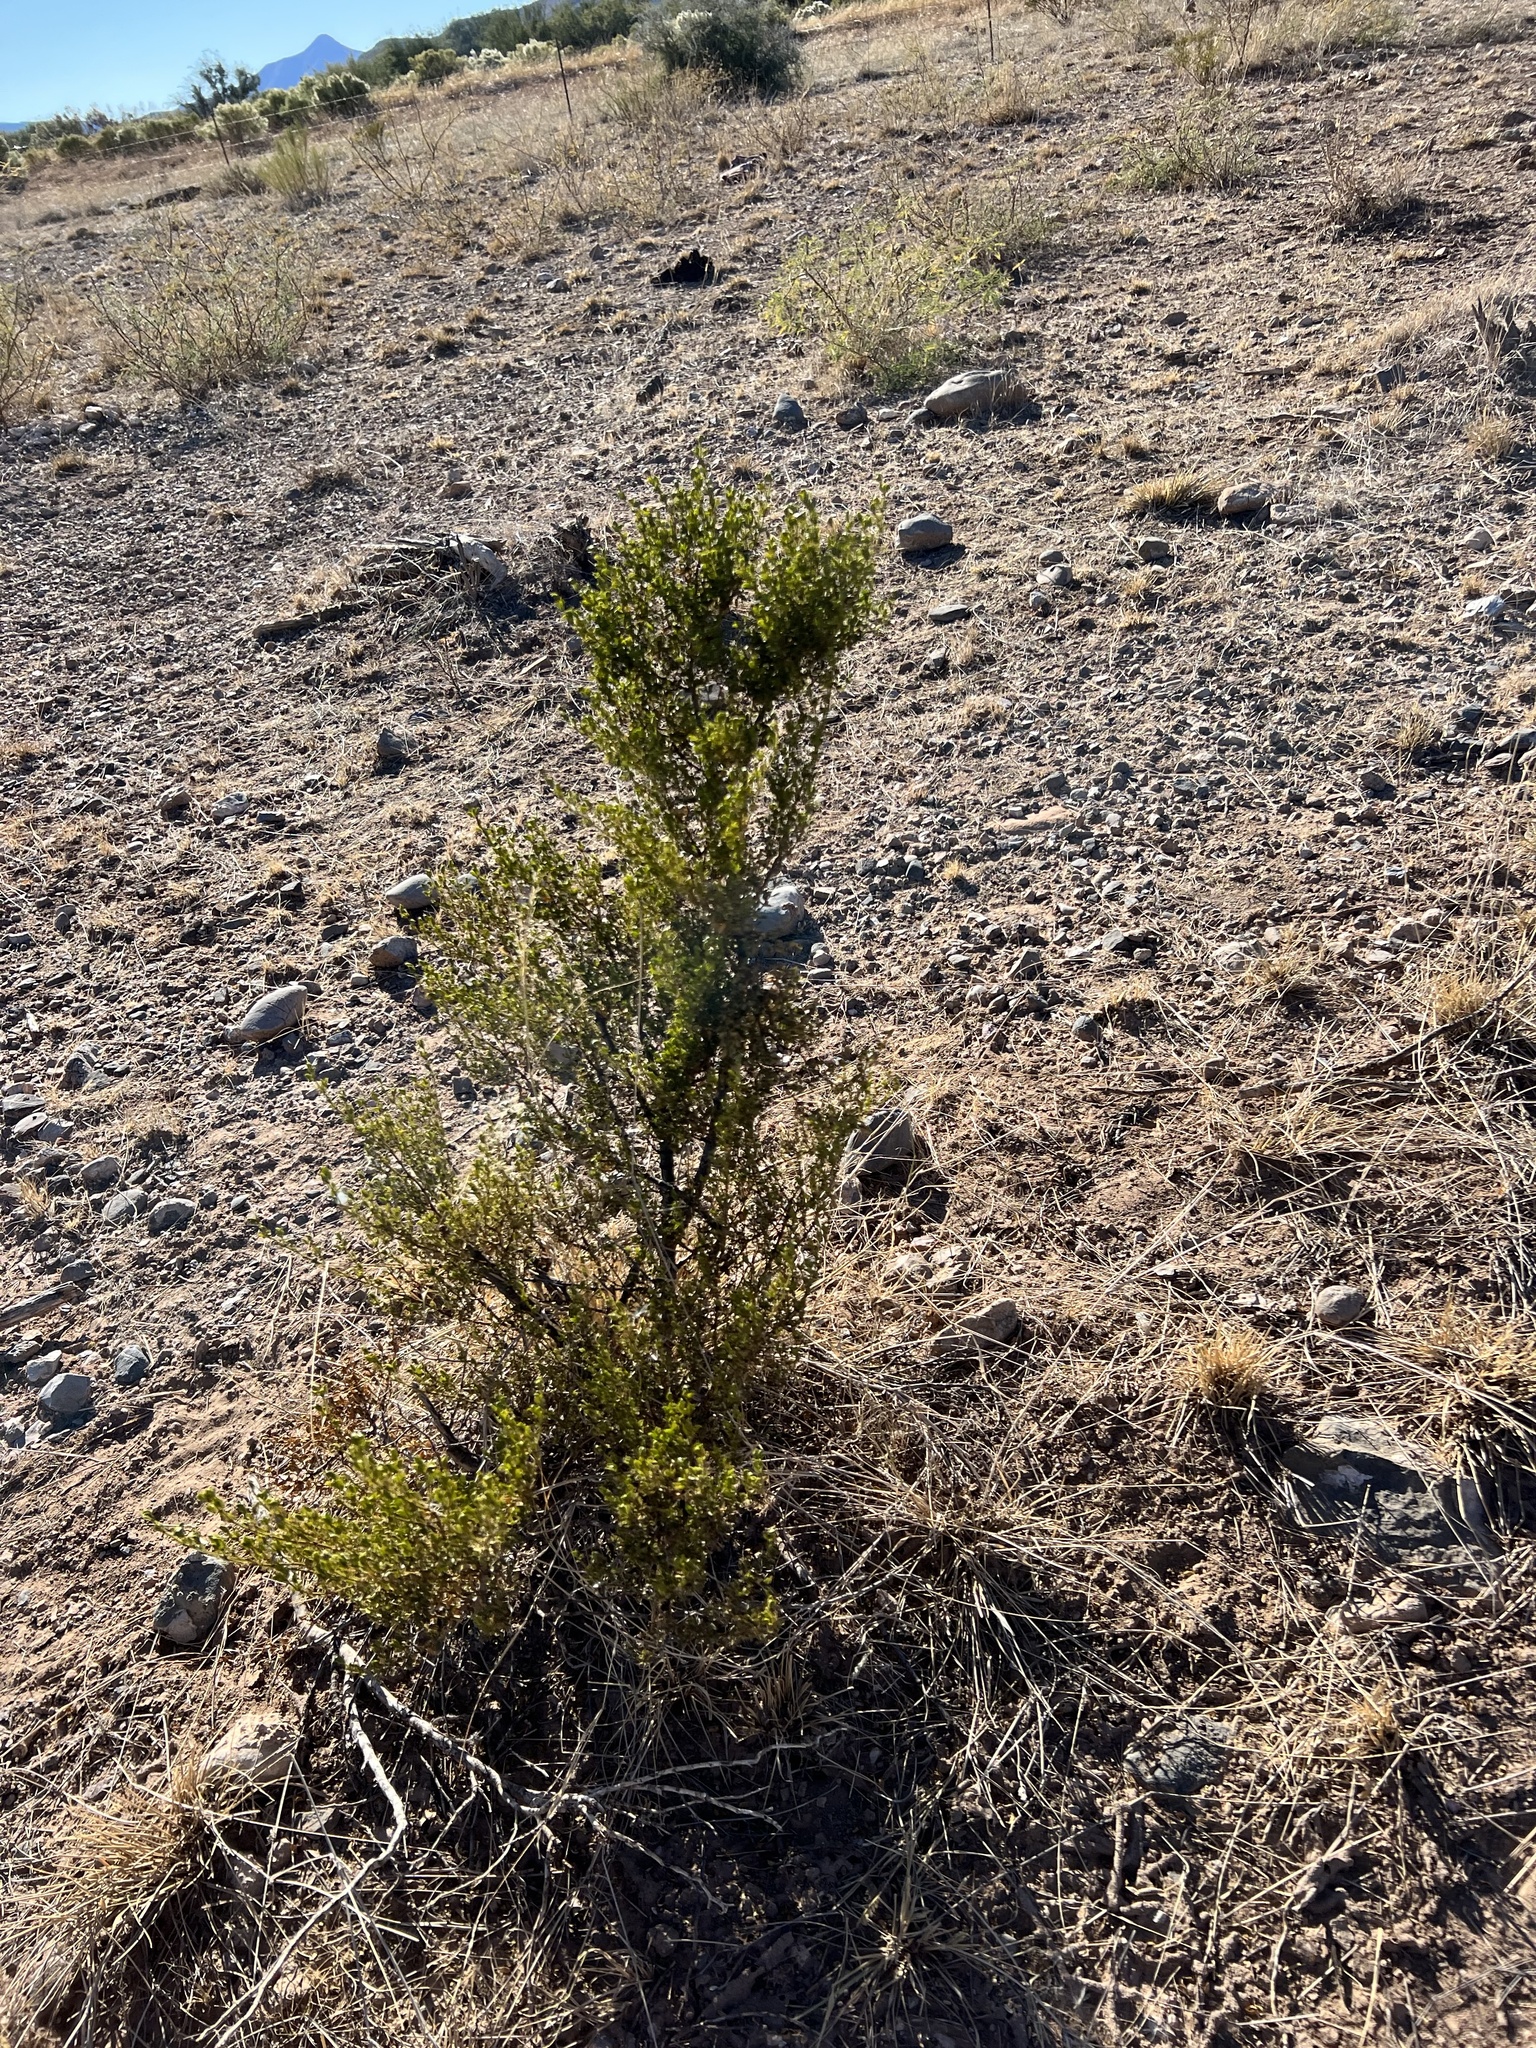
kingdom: Plantae
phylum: Tracheophyta
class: Magnoliopsida
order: Zygophyllales
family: Zygophyllaceae
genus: Larrea
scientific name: Larrea tridentata
